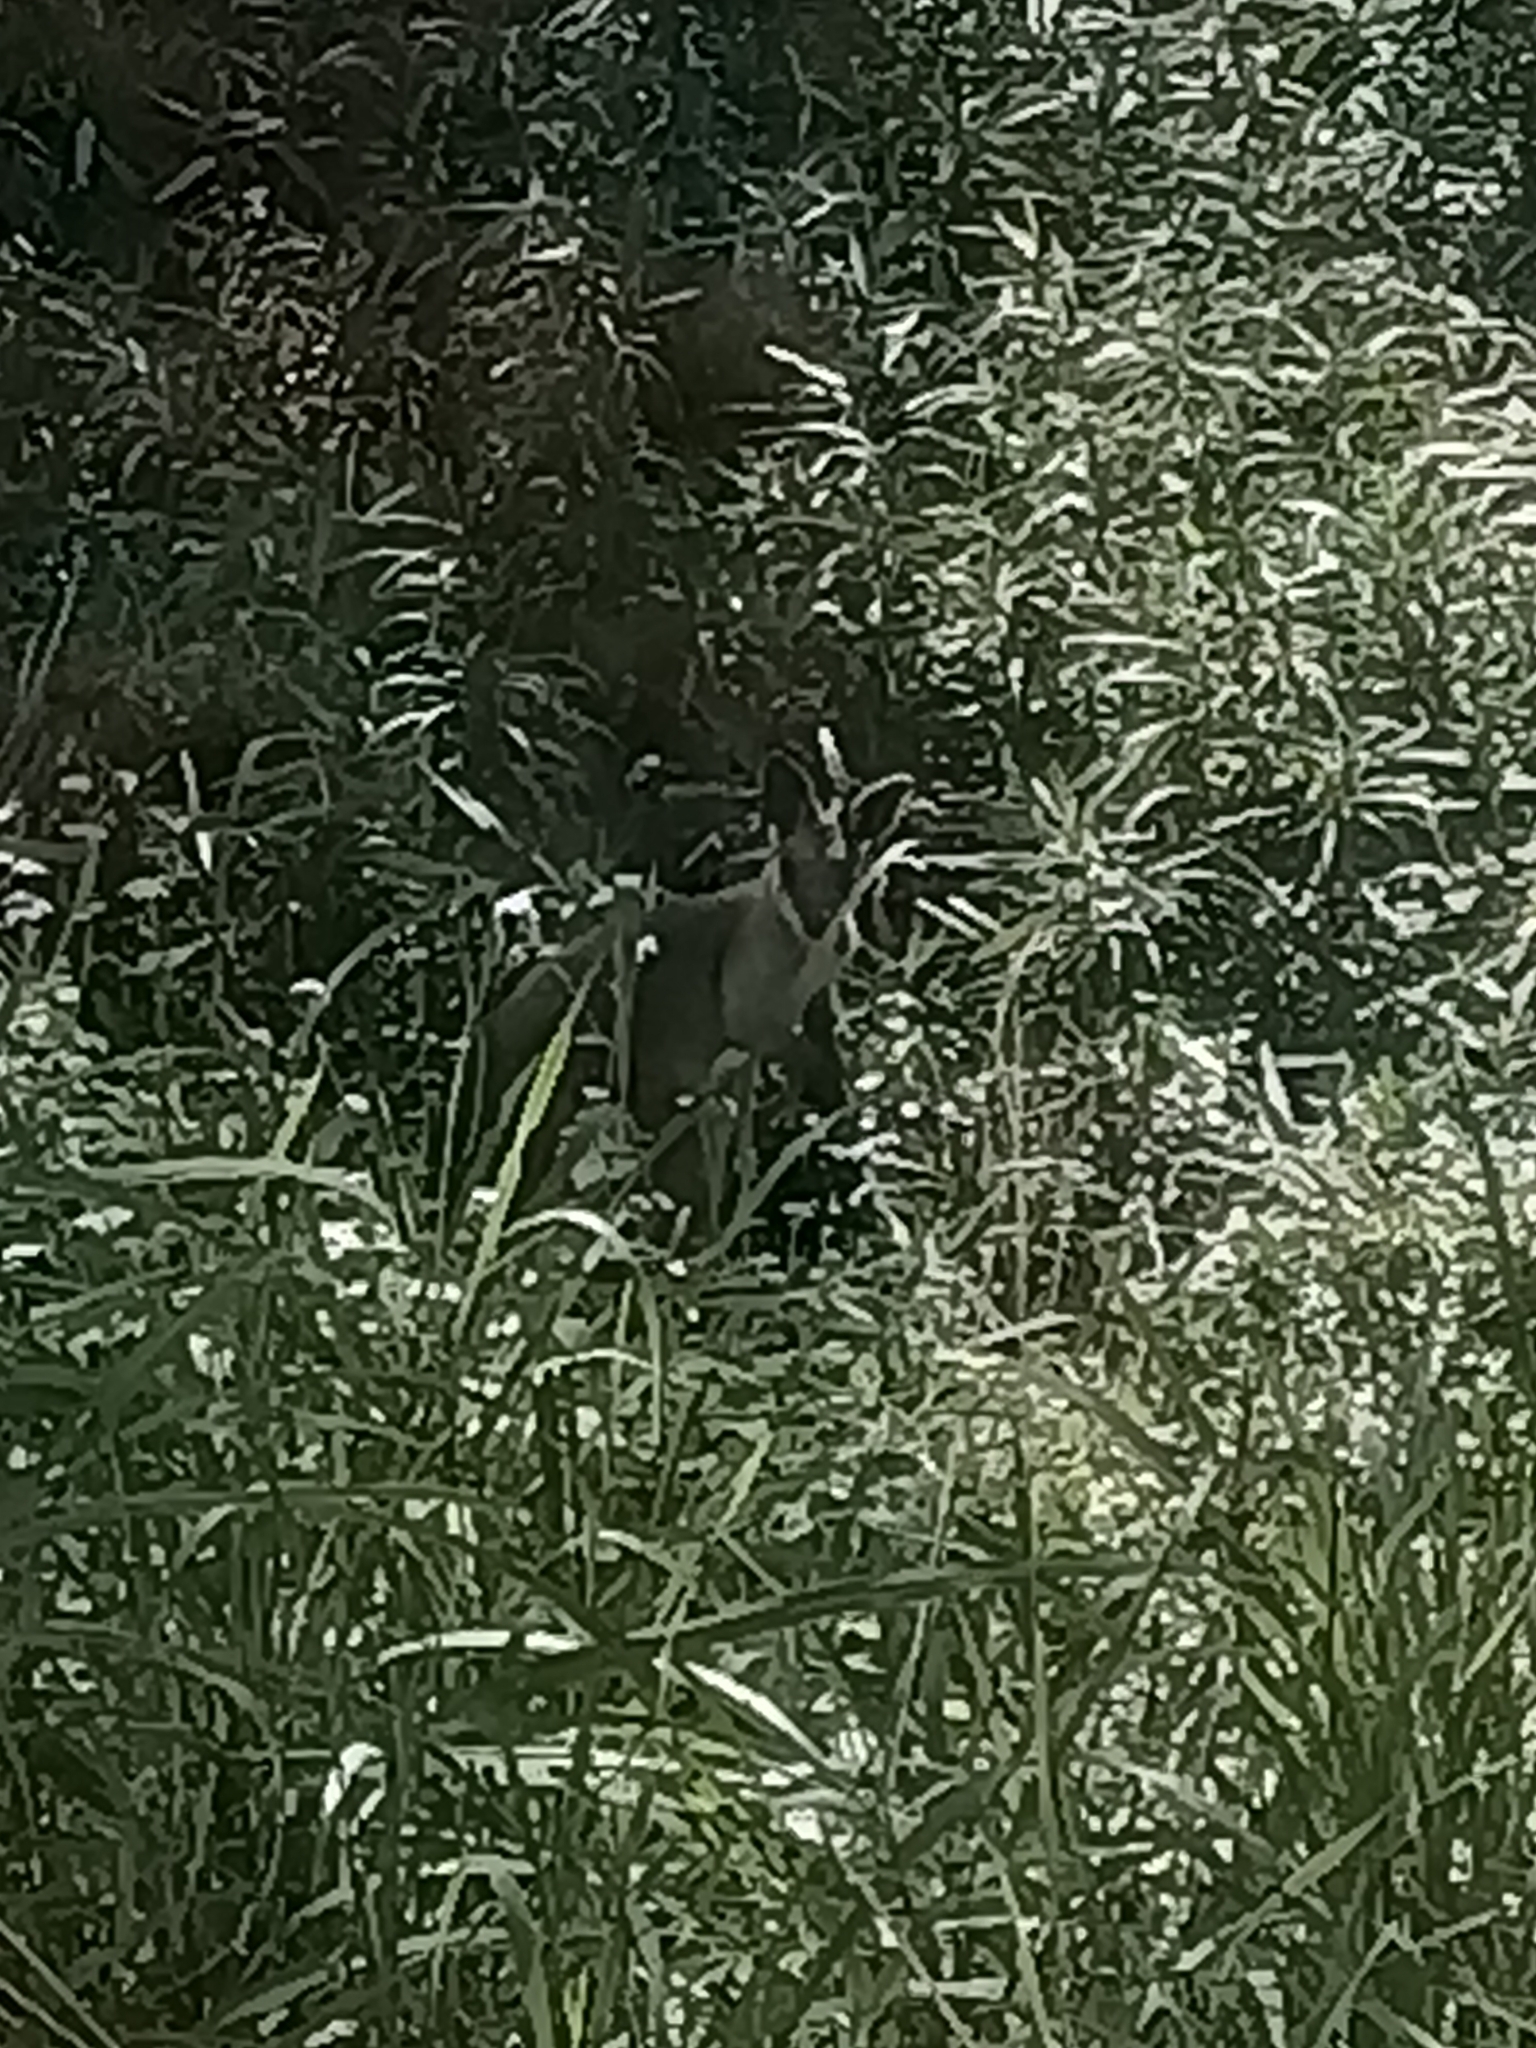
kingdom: Animalia
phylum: Chordata
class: Mammalia
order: Diprotodontia
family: Macropodidae
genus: Wallabia
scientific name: Wallabia bicolor
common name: Swamp wallaby
